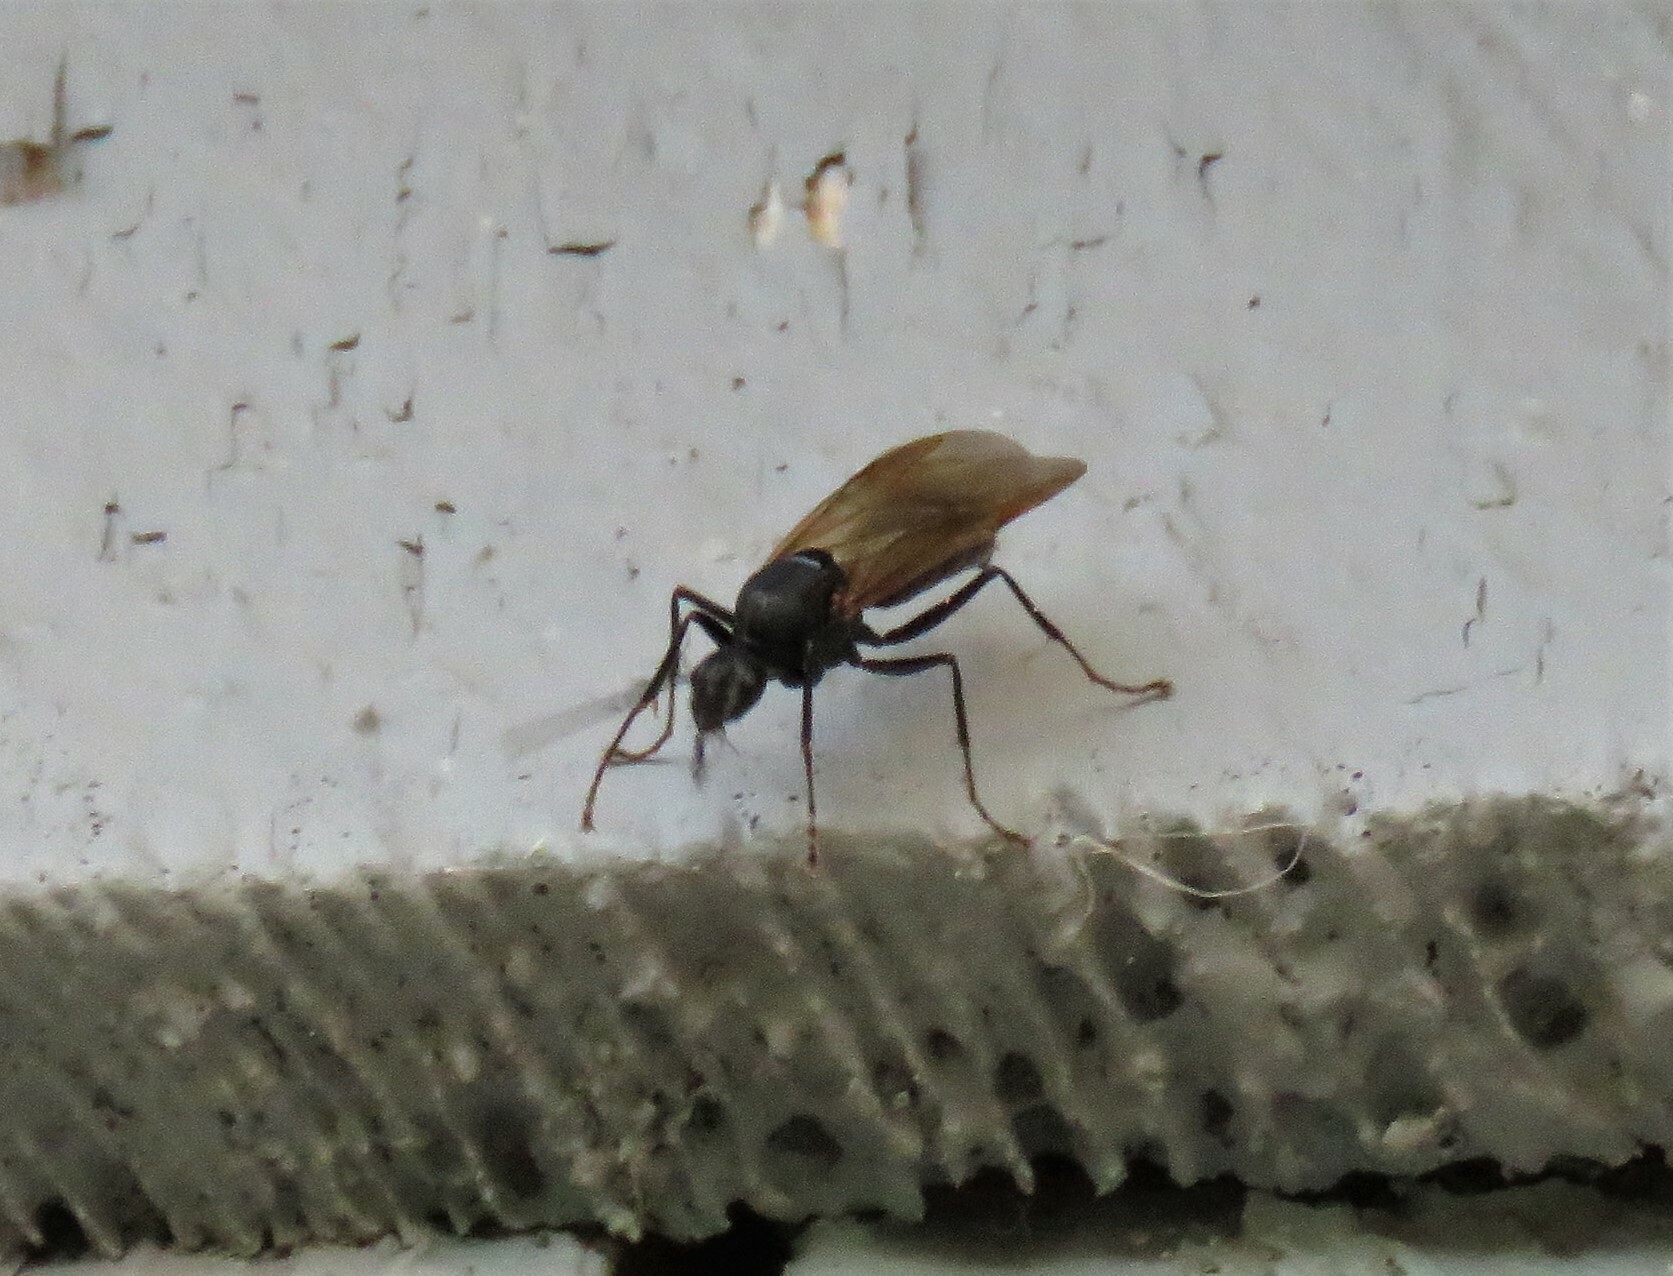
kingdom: Animalia
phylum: Arthropoda
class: Insecta
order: Hymenoptera
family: Formicidae
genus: Camponotus
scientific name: Camponotus
